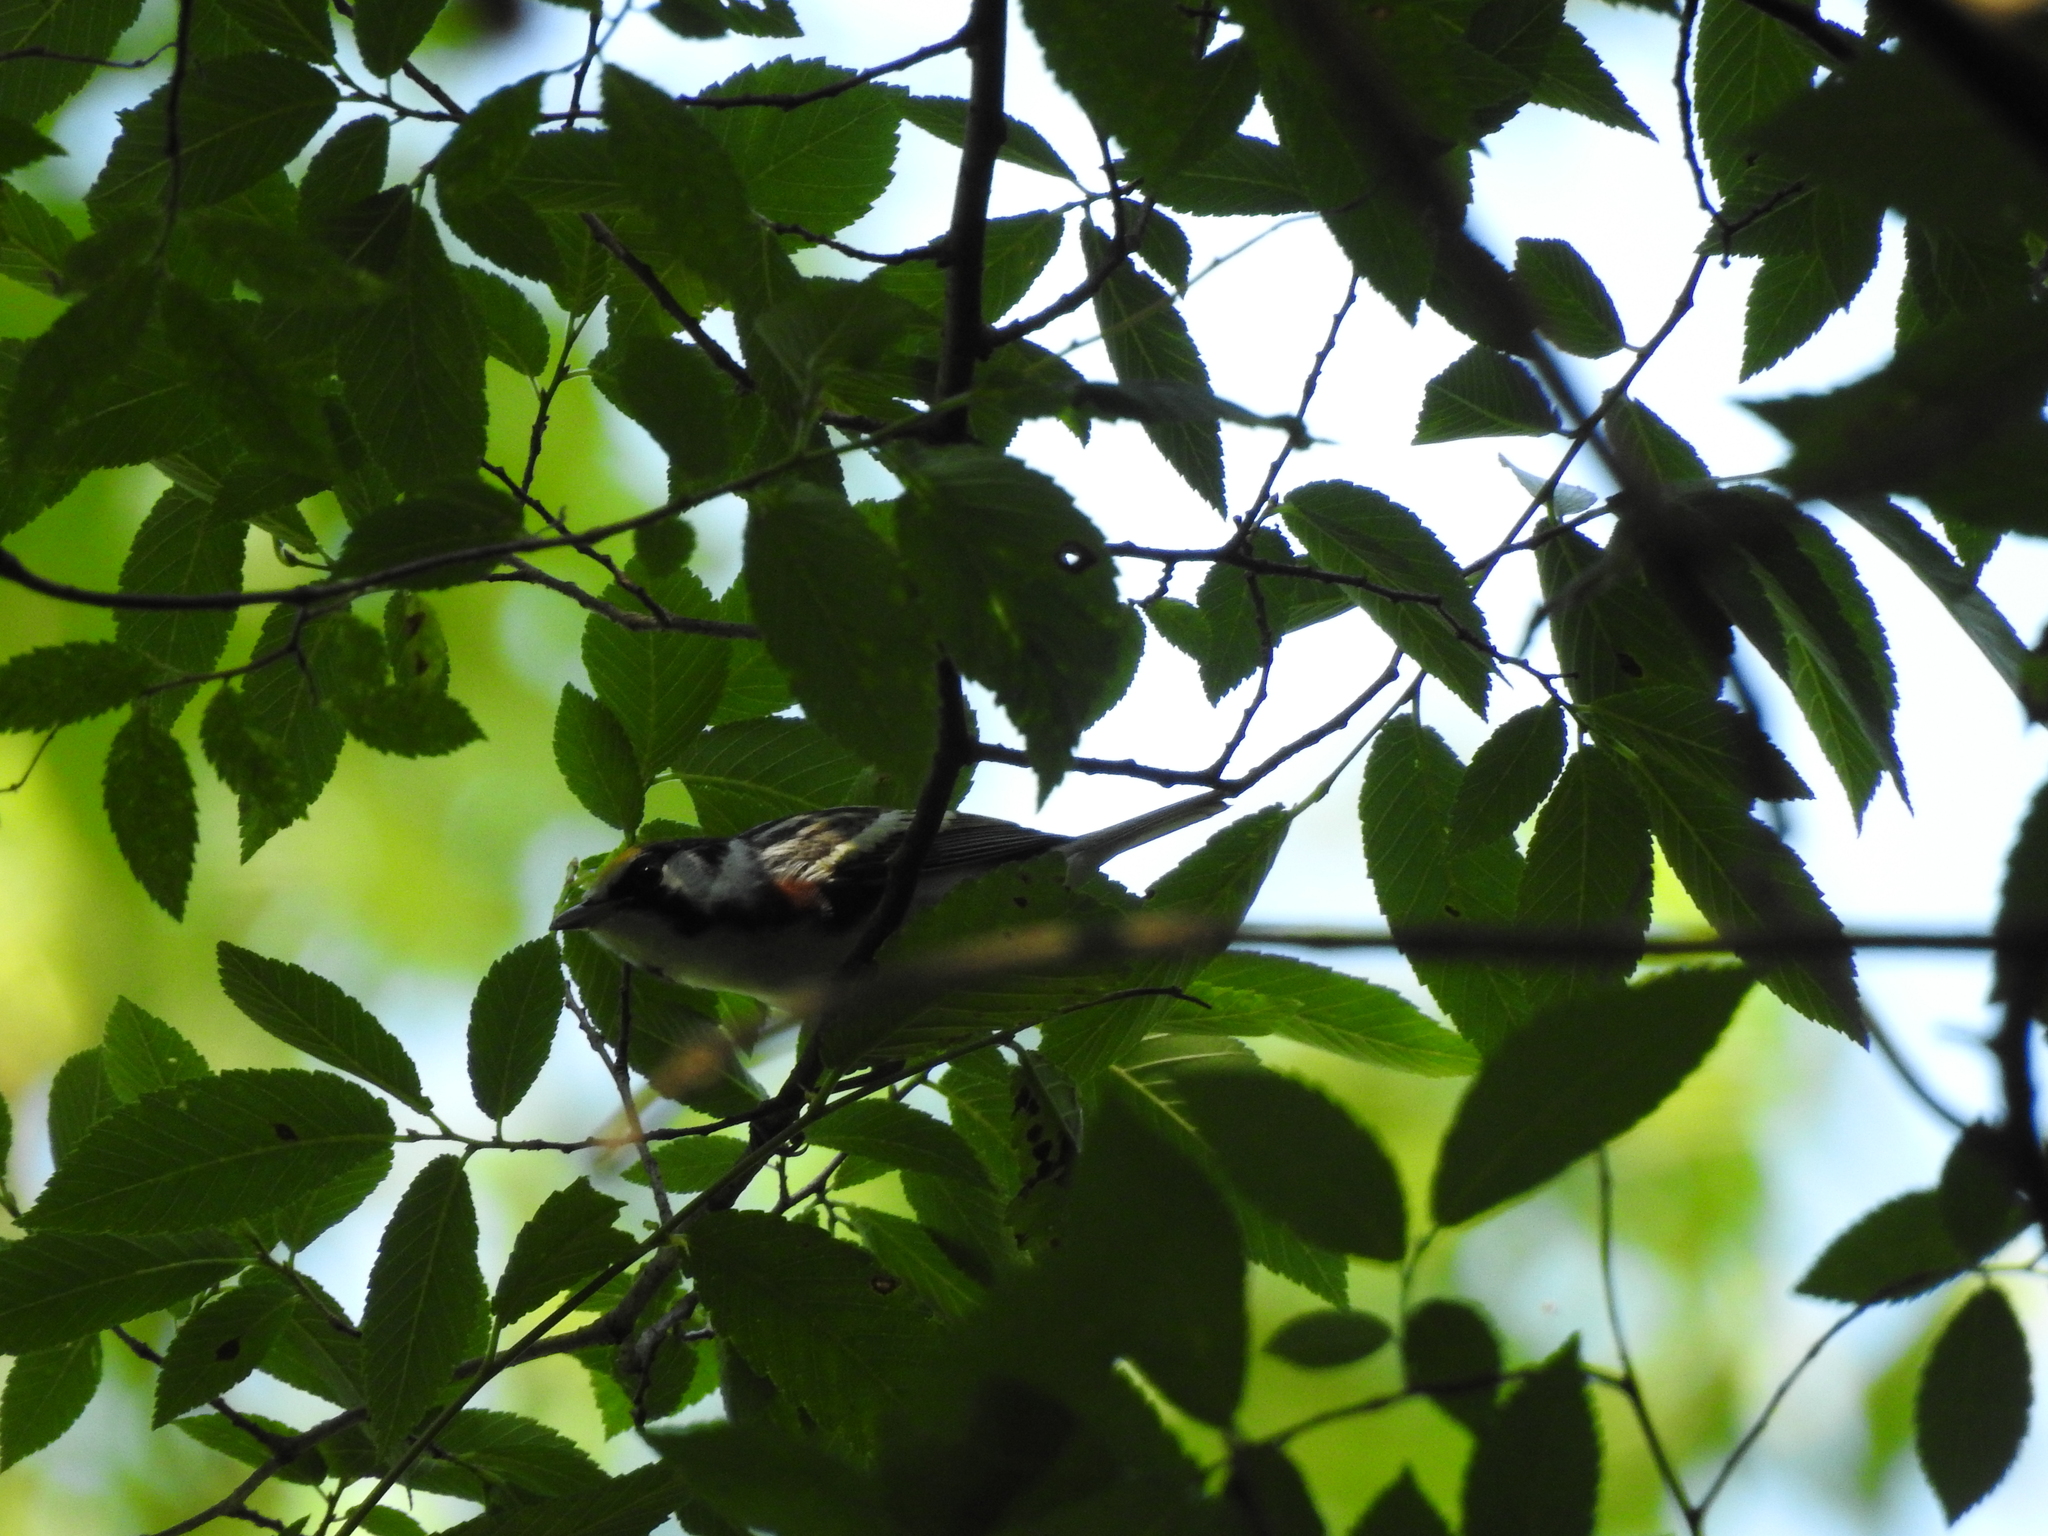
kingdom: Animalia
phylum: Chordata
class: Aves
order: Passeriformes
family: Parulidae
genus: Setophaga
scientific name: Setophaga pensylvanica
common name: Chestnut-sided warbler
